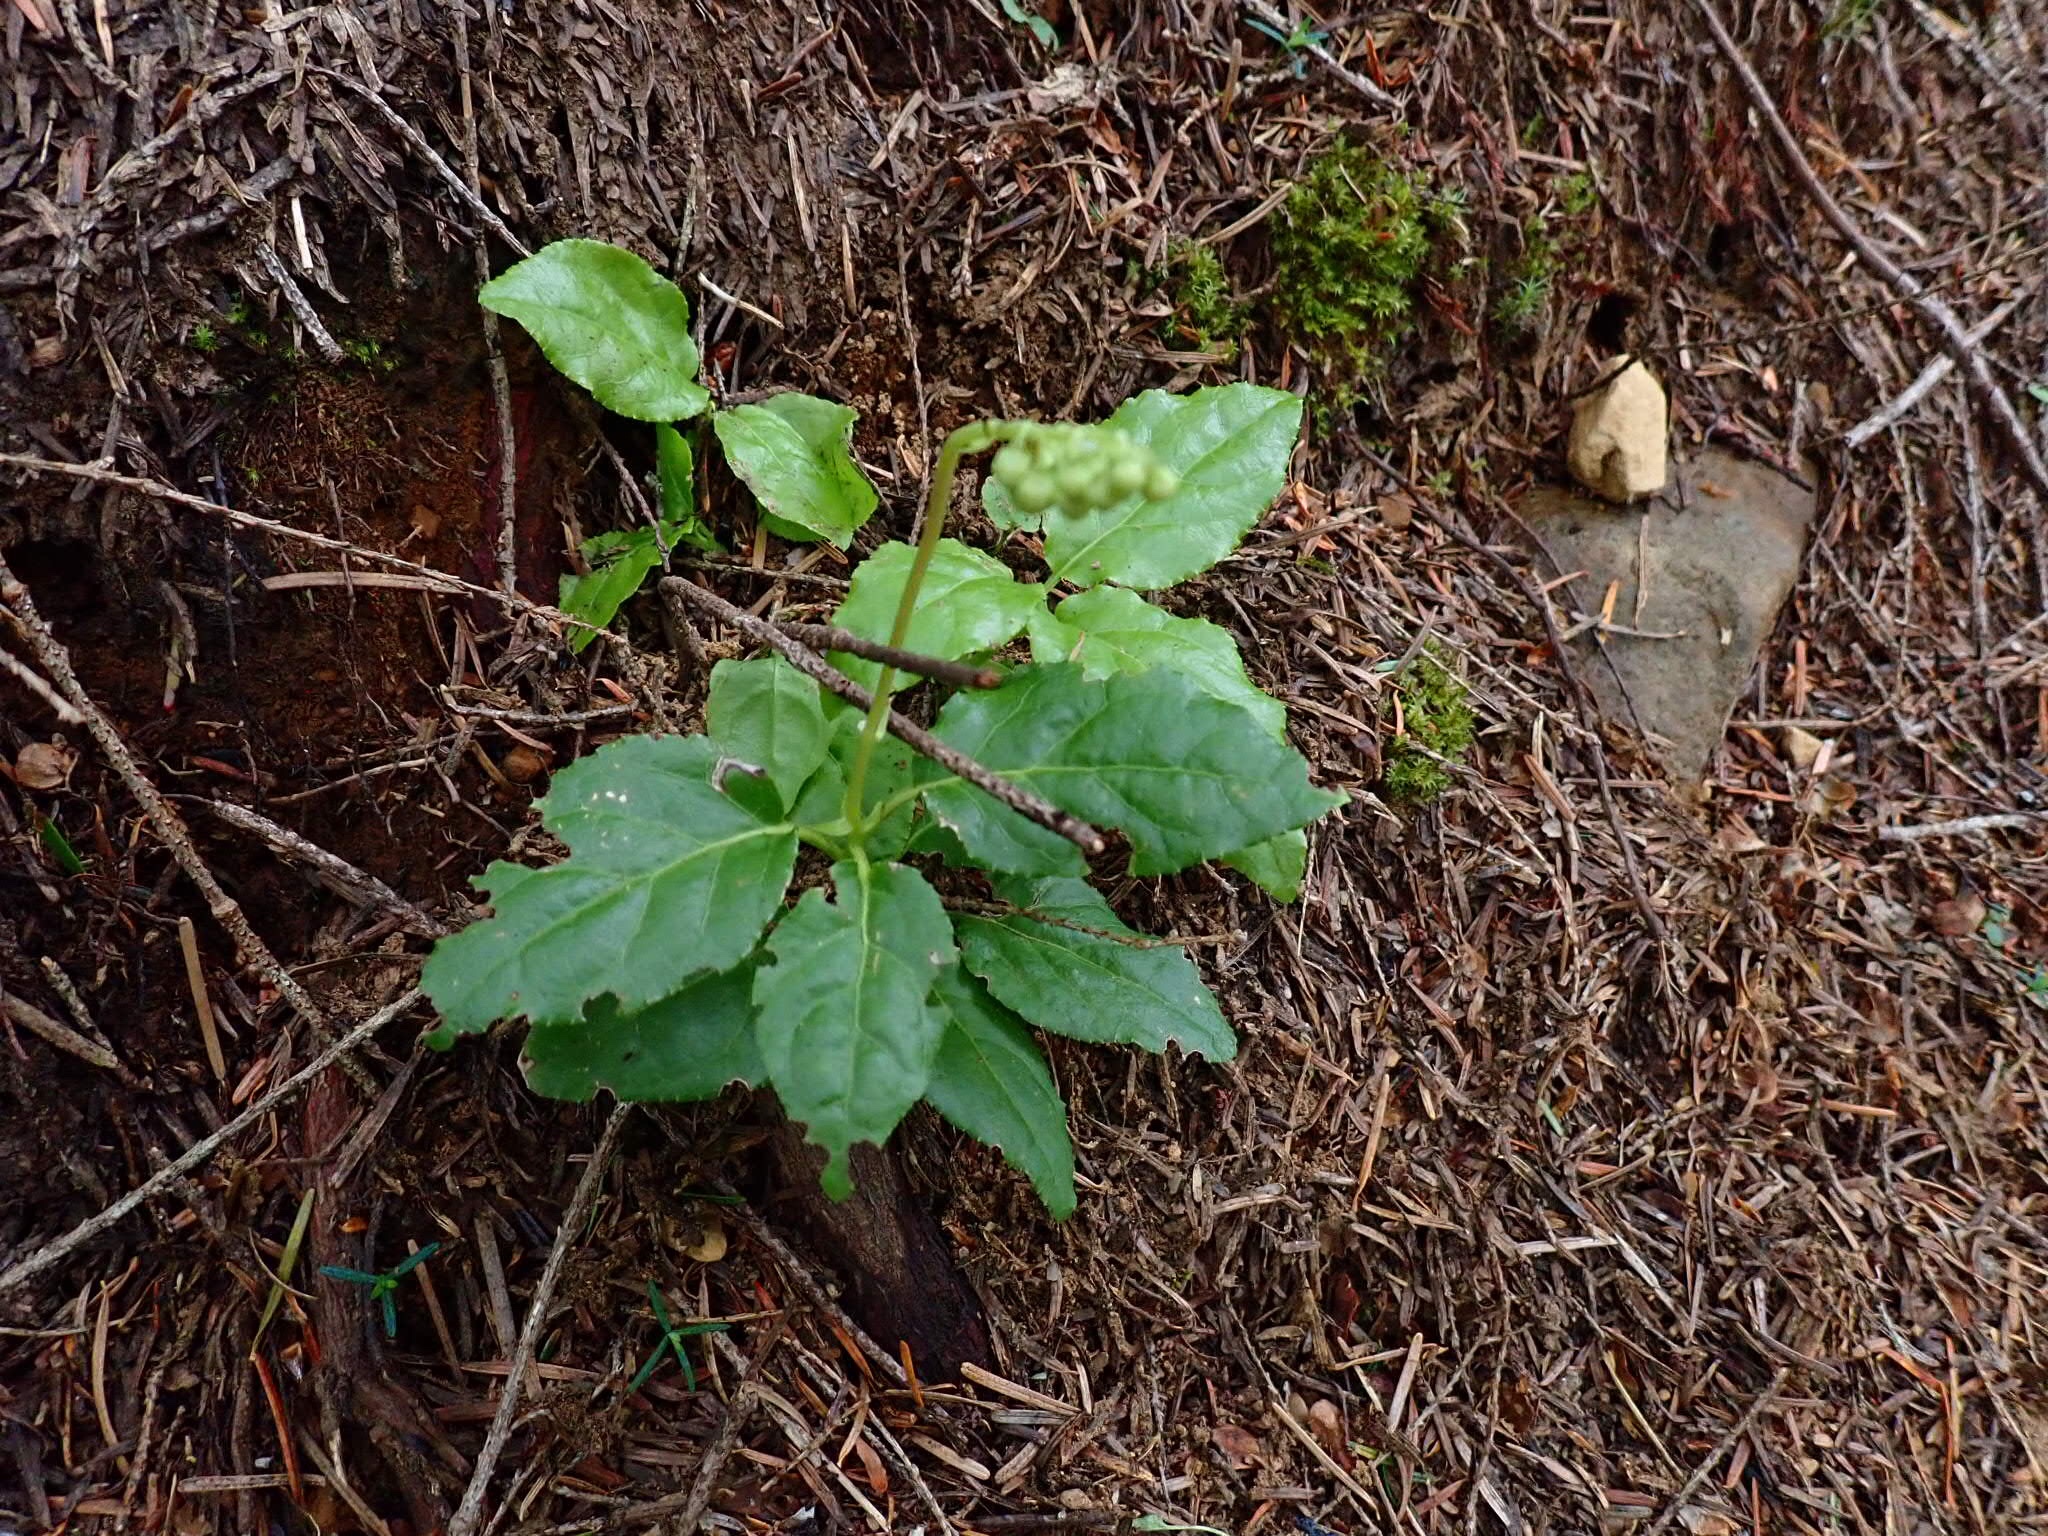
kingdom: Plantae
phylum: Tracheophyta
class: Magnoliopsida
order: Ericales
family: Ericaceae
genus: Orthilia
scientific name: Orthilia secunda
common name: One-sided orthilia
